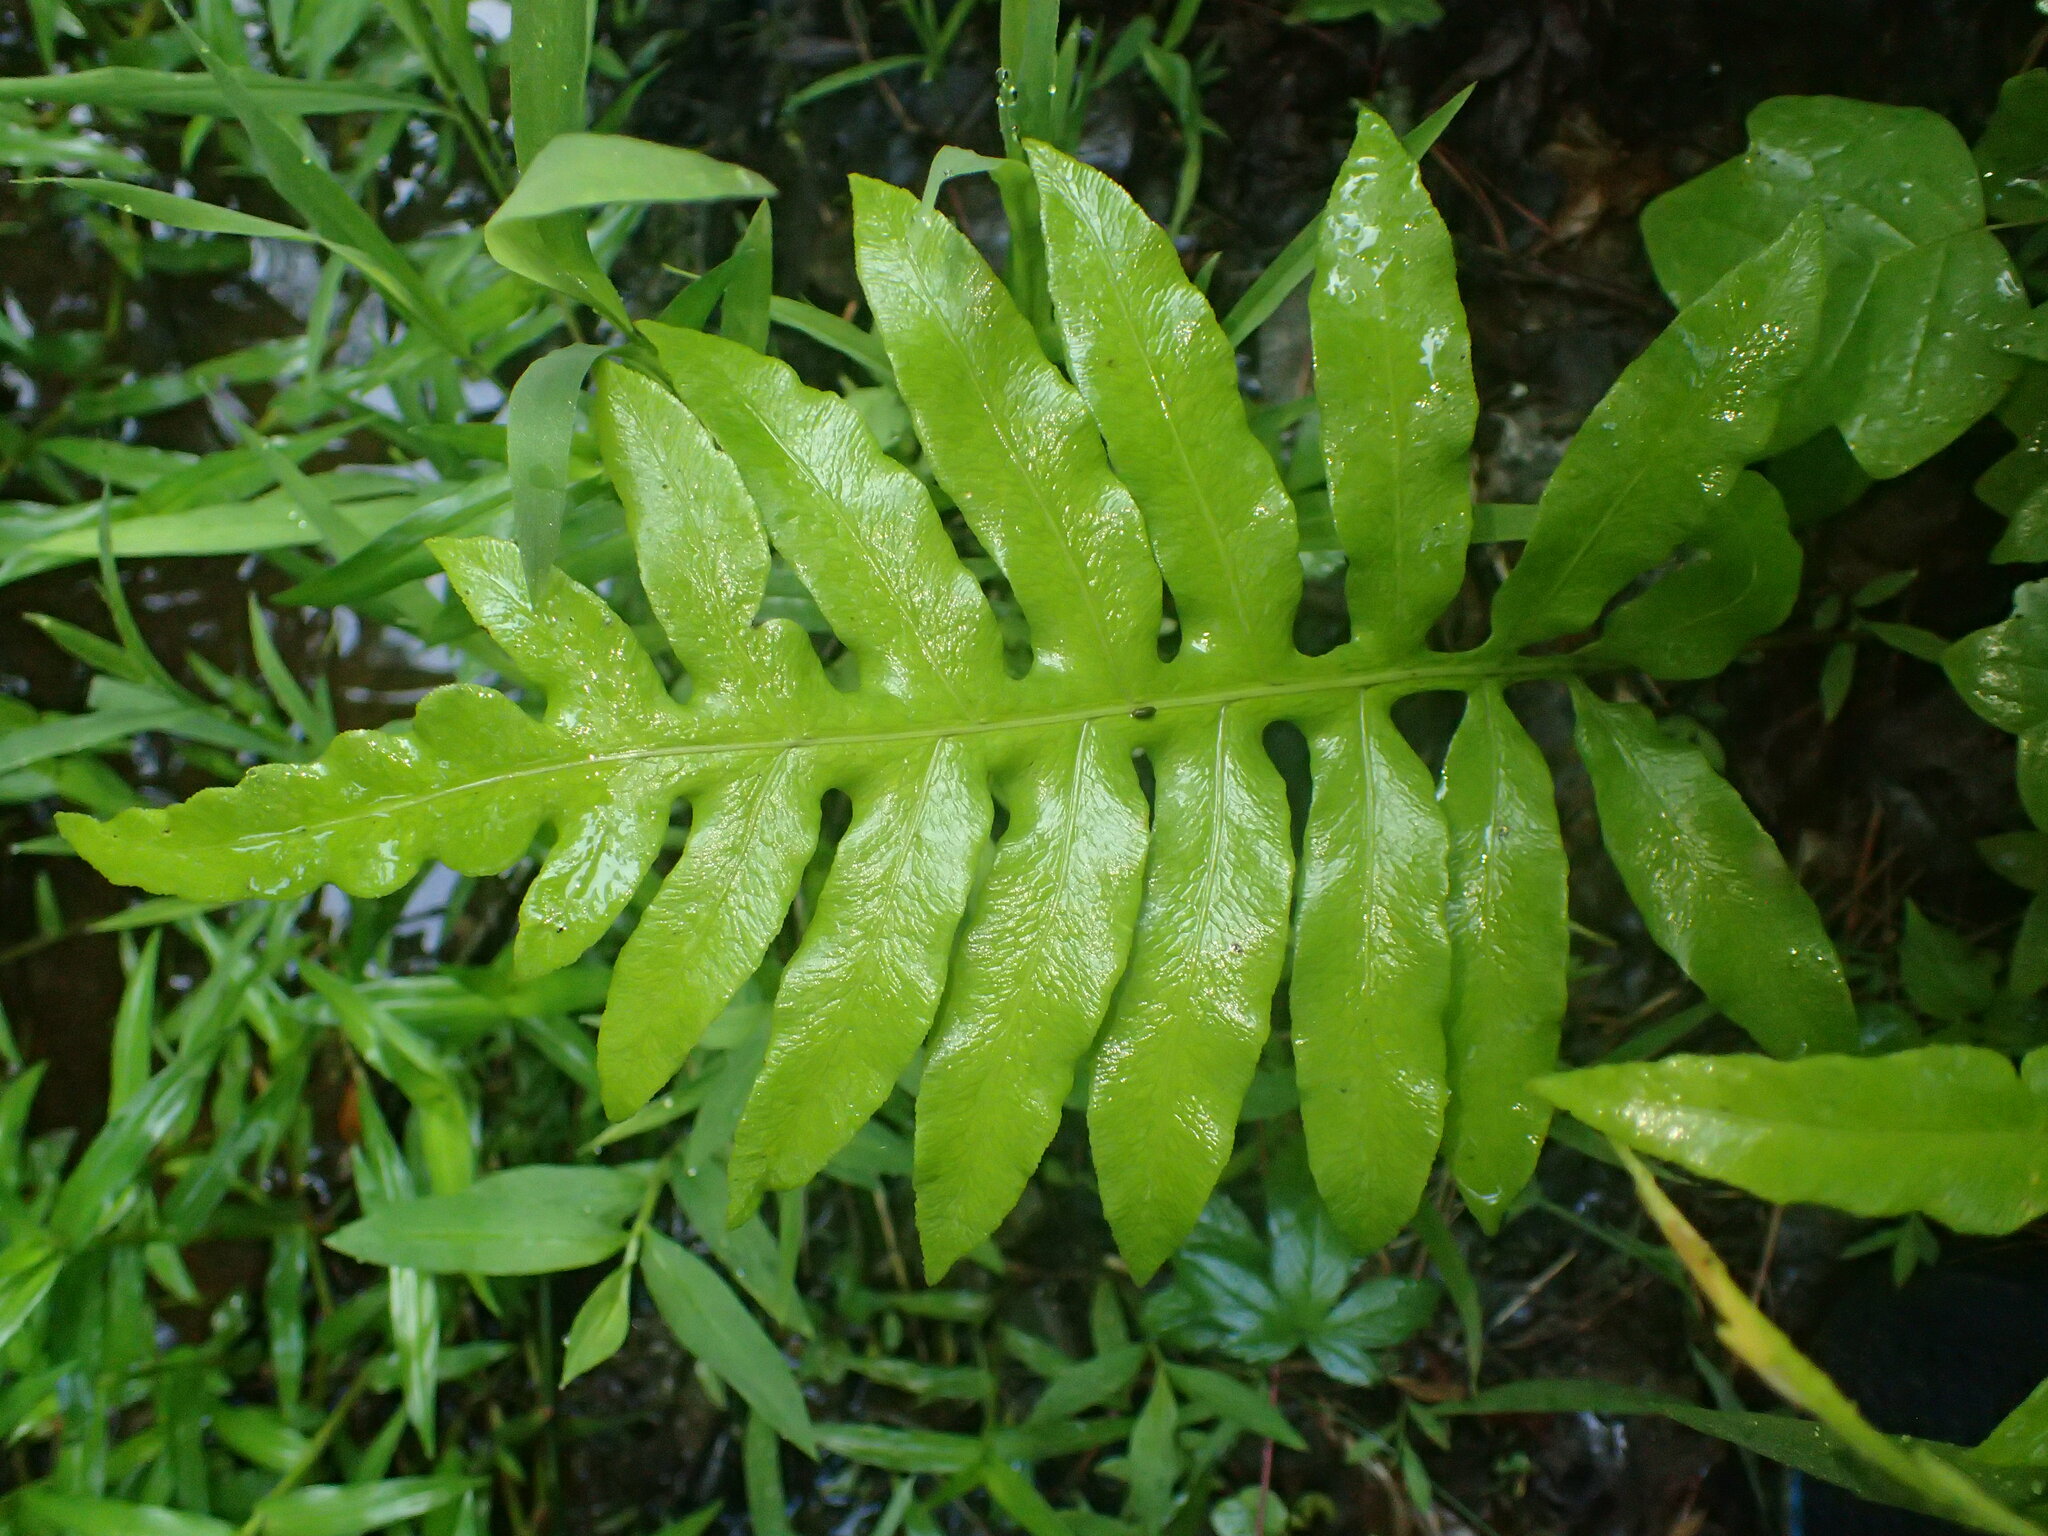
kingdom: Plantae
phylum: Tracheophyta
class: Polypodiopsida
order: Polypodiales
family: Blechnaceae
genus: Lorinseria
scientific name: Lorinseria areolata
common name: Dwarf chain fern
